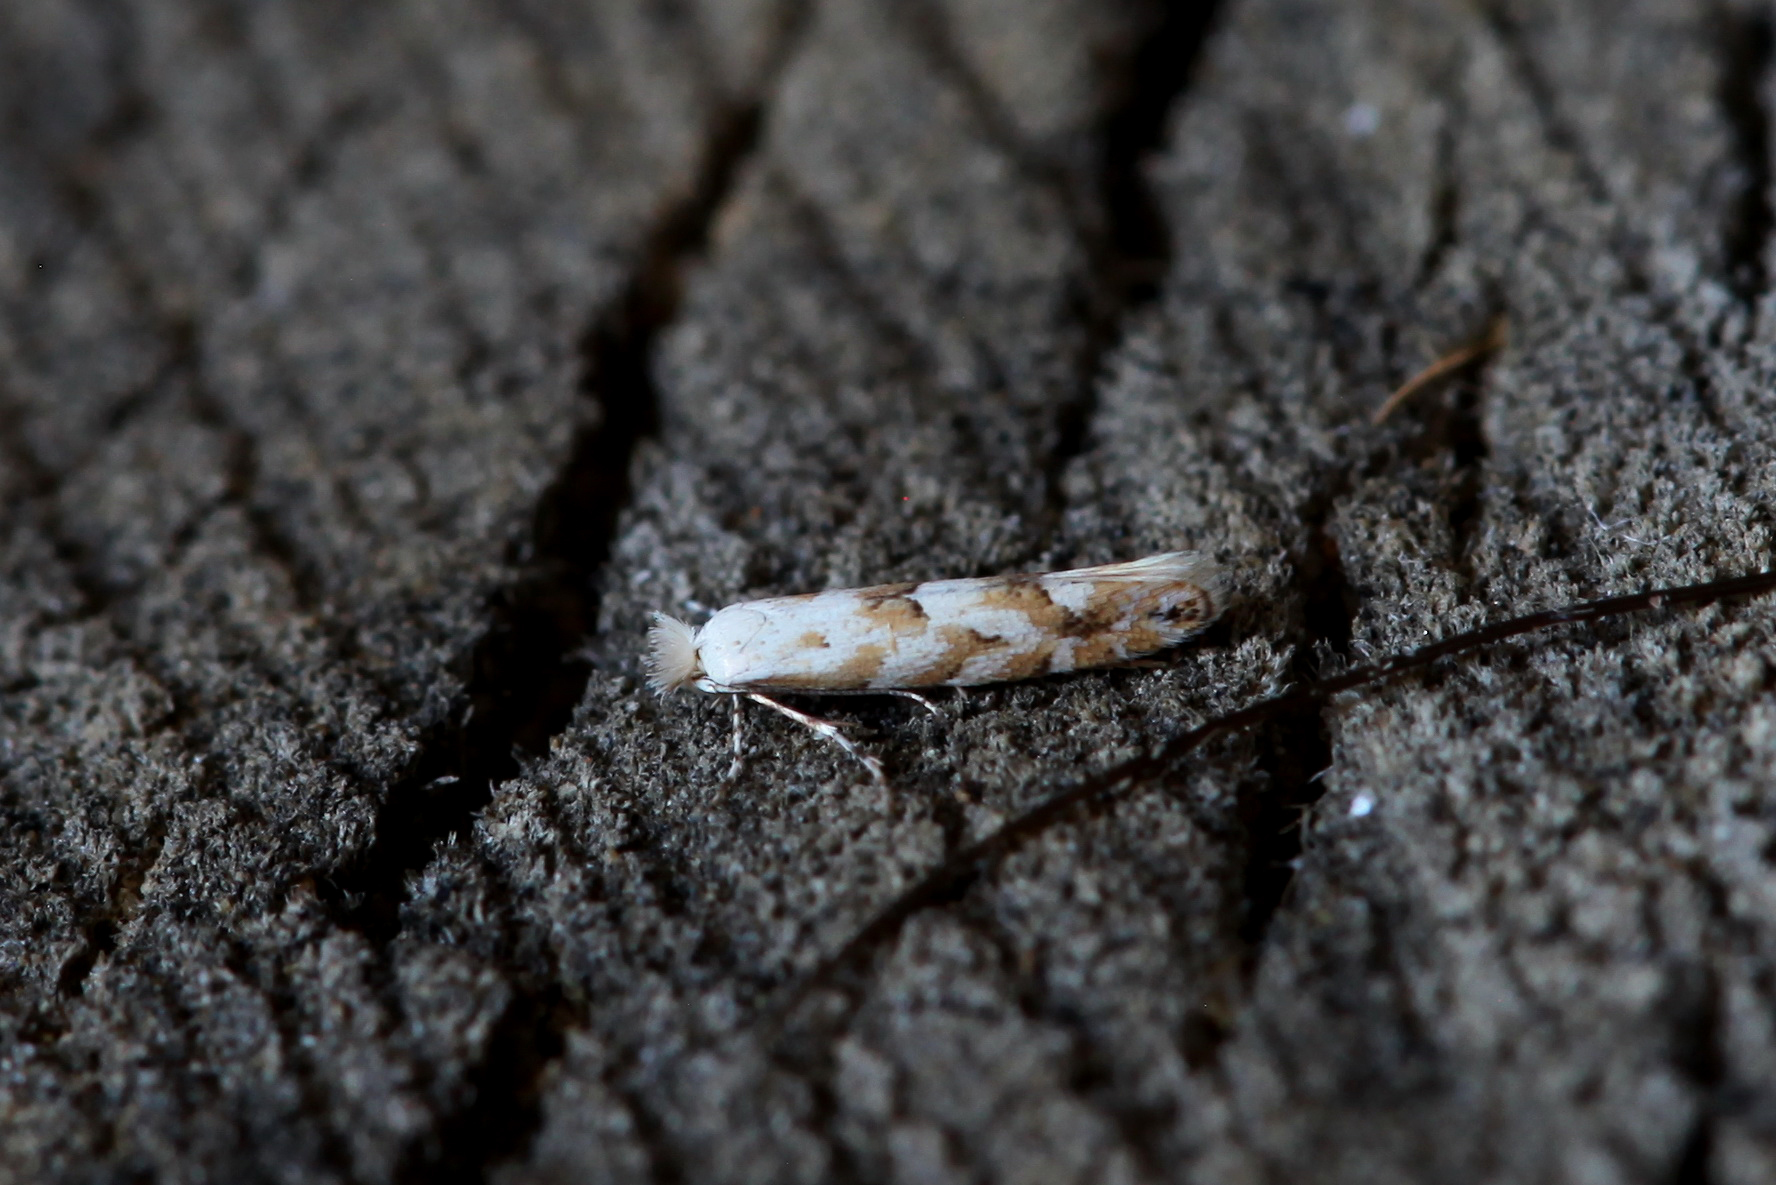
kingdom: Animalia
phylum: Arthropoda
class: Insecta
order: Lepidoptera
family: Gracillariidae
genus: Phyllonorycter
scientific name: Phyllonorycter apparella
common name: Aspen leaf blotch miner
